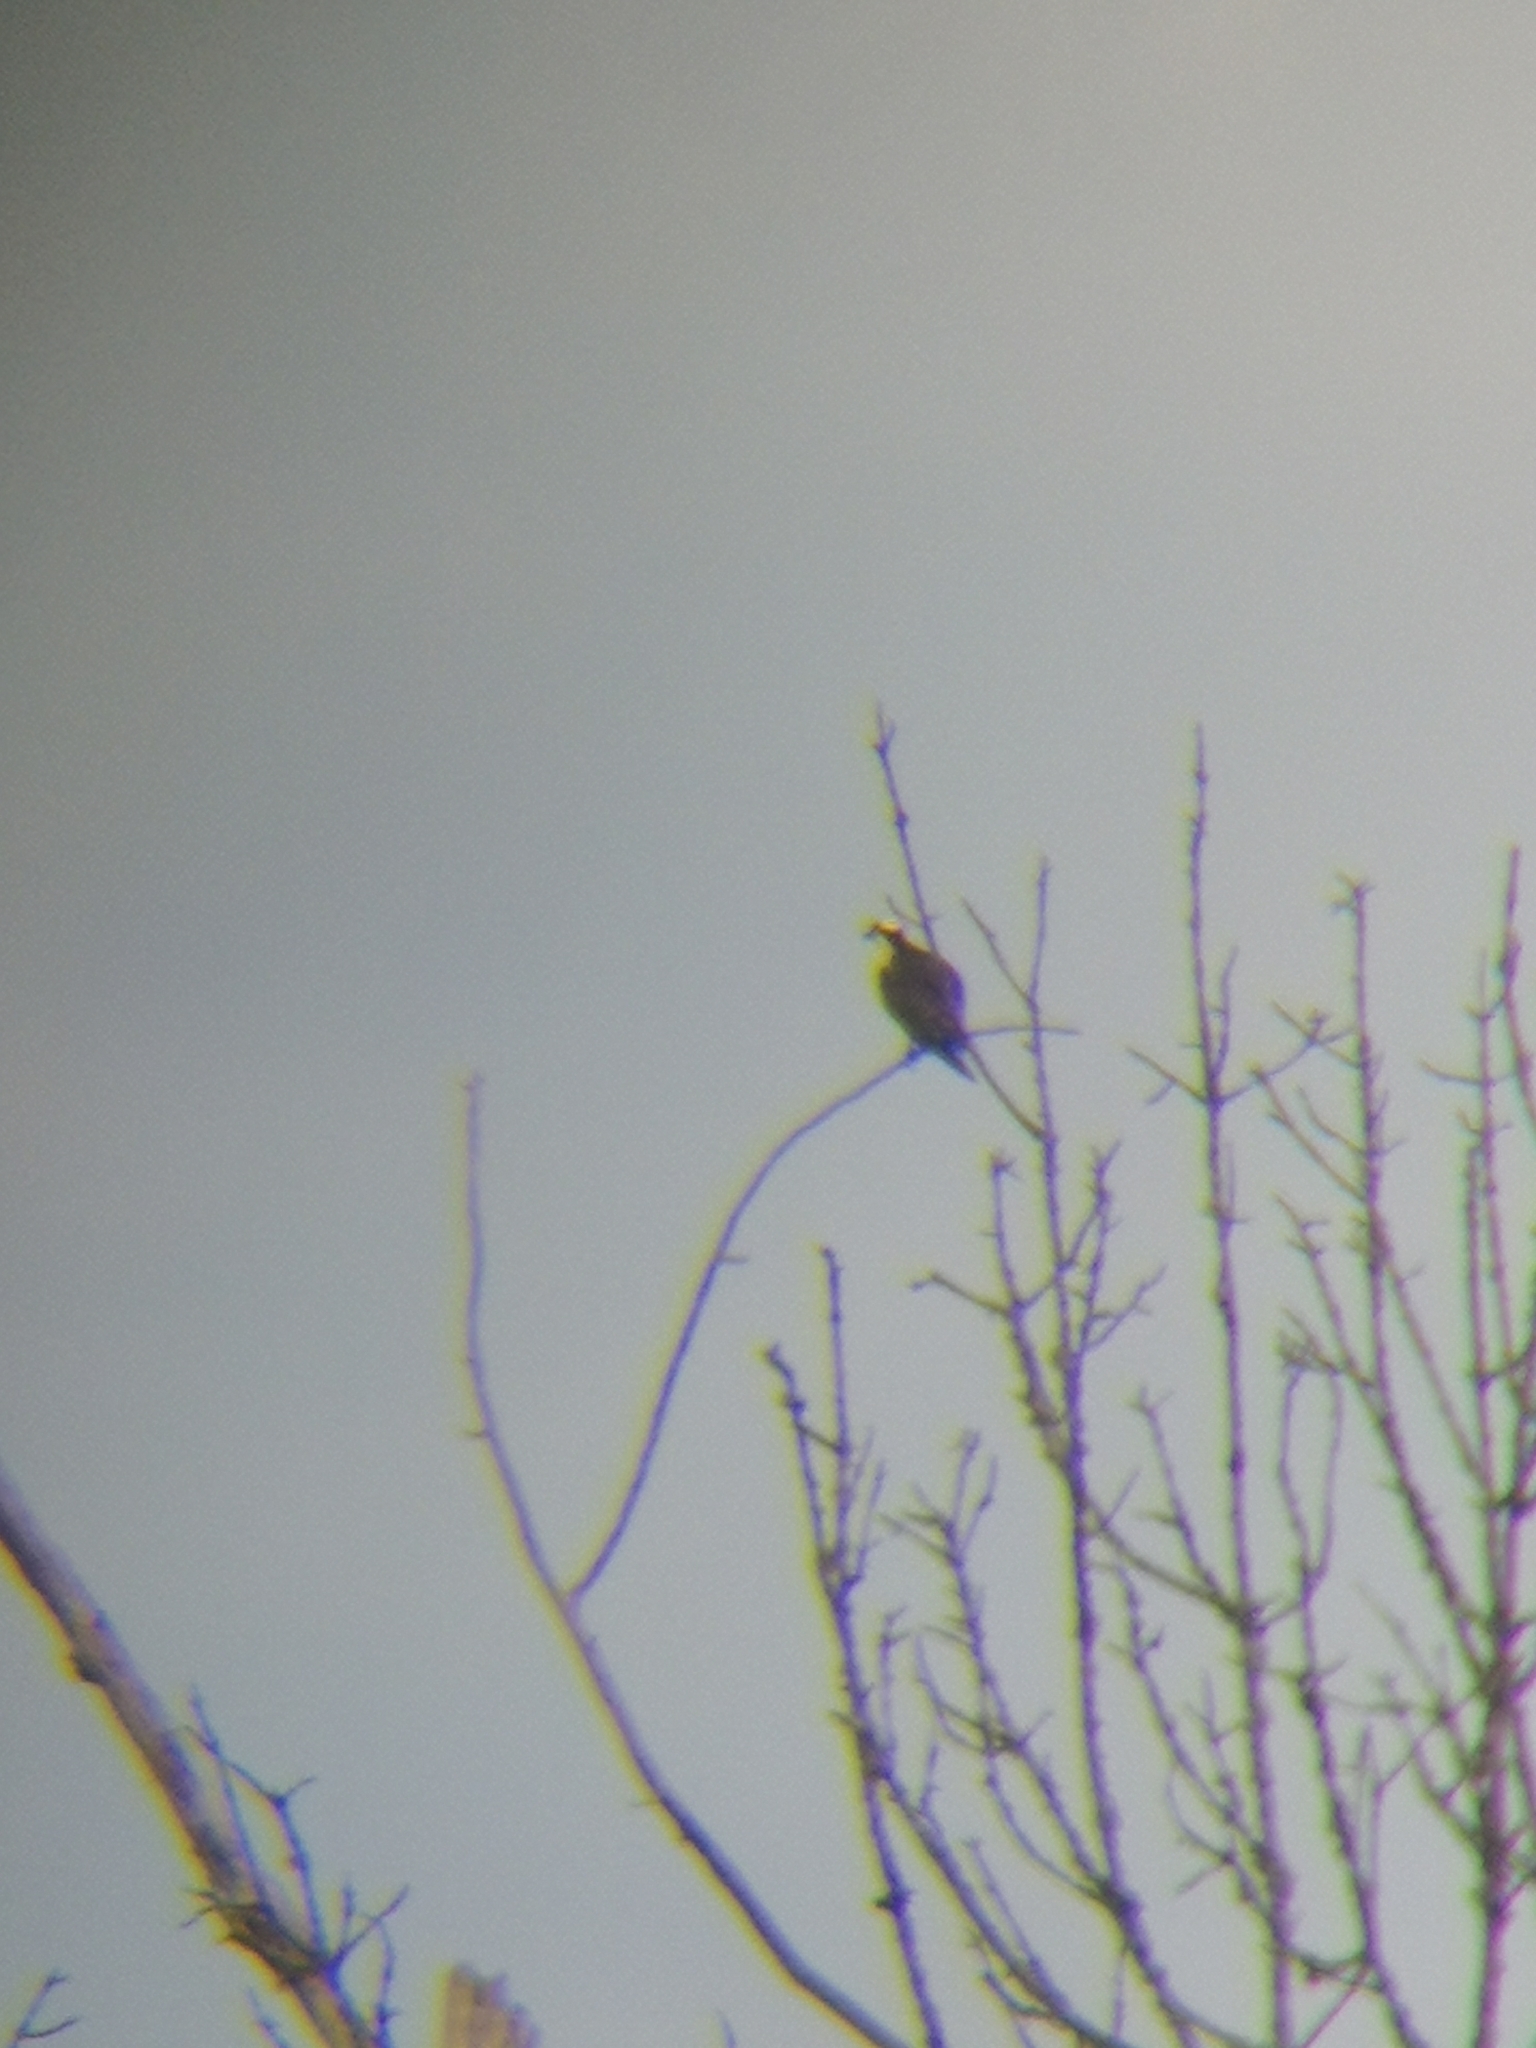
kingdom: Animalia
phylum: Chordata
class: Aves
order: Accipitriformes
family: Pandionidae
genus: Pandion
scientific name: Pandion haliaetus
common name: Osprey
